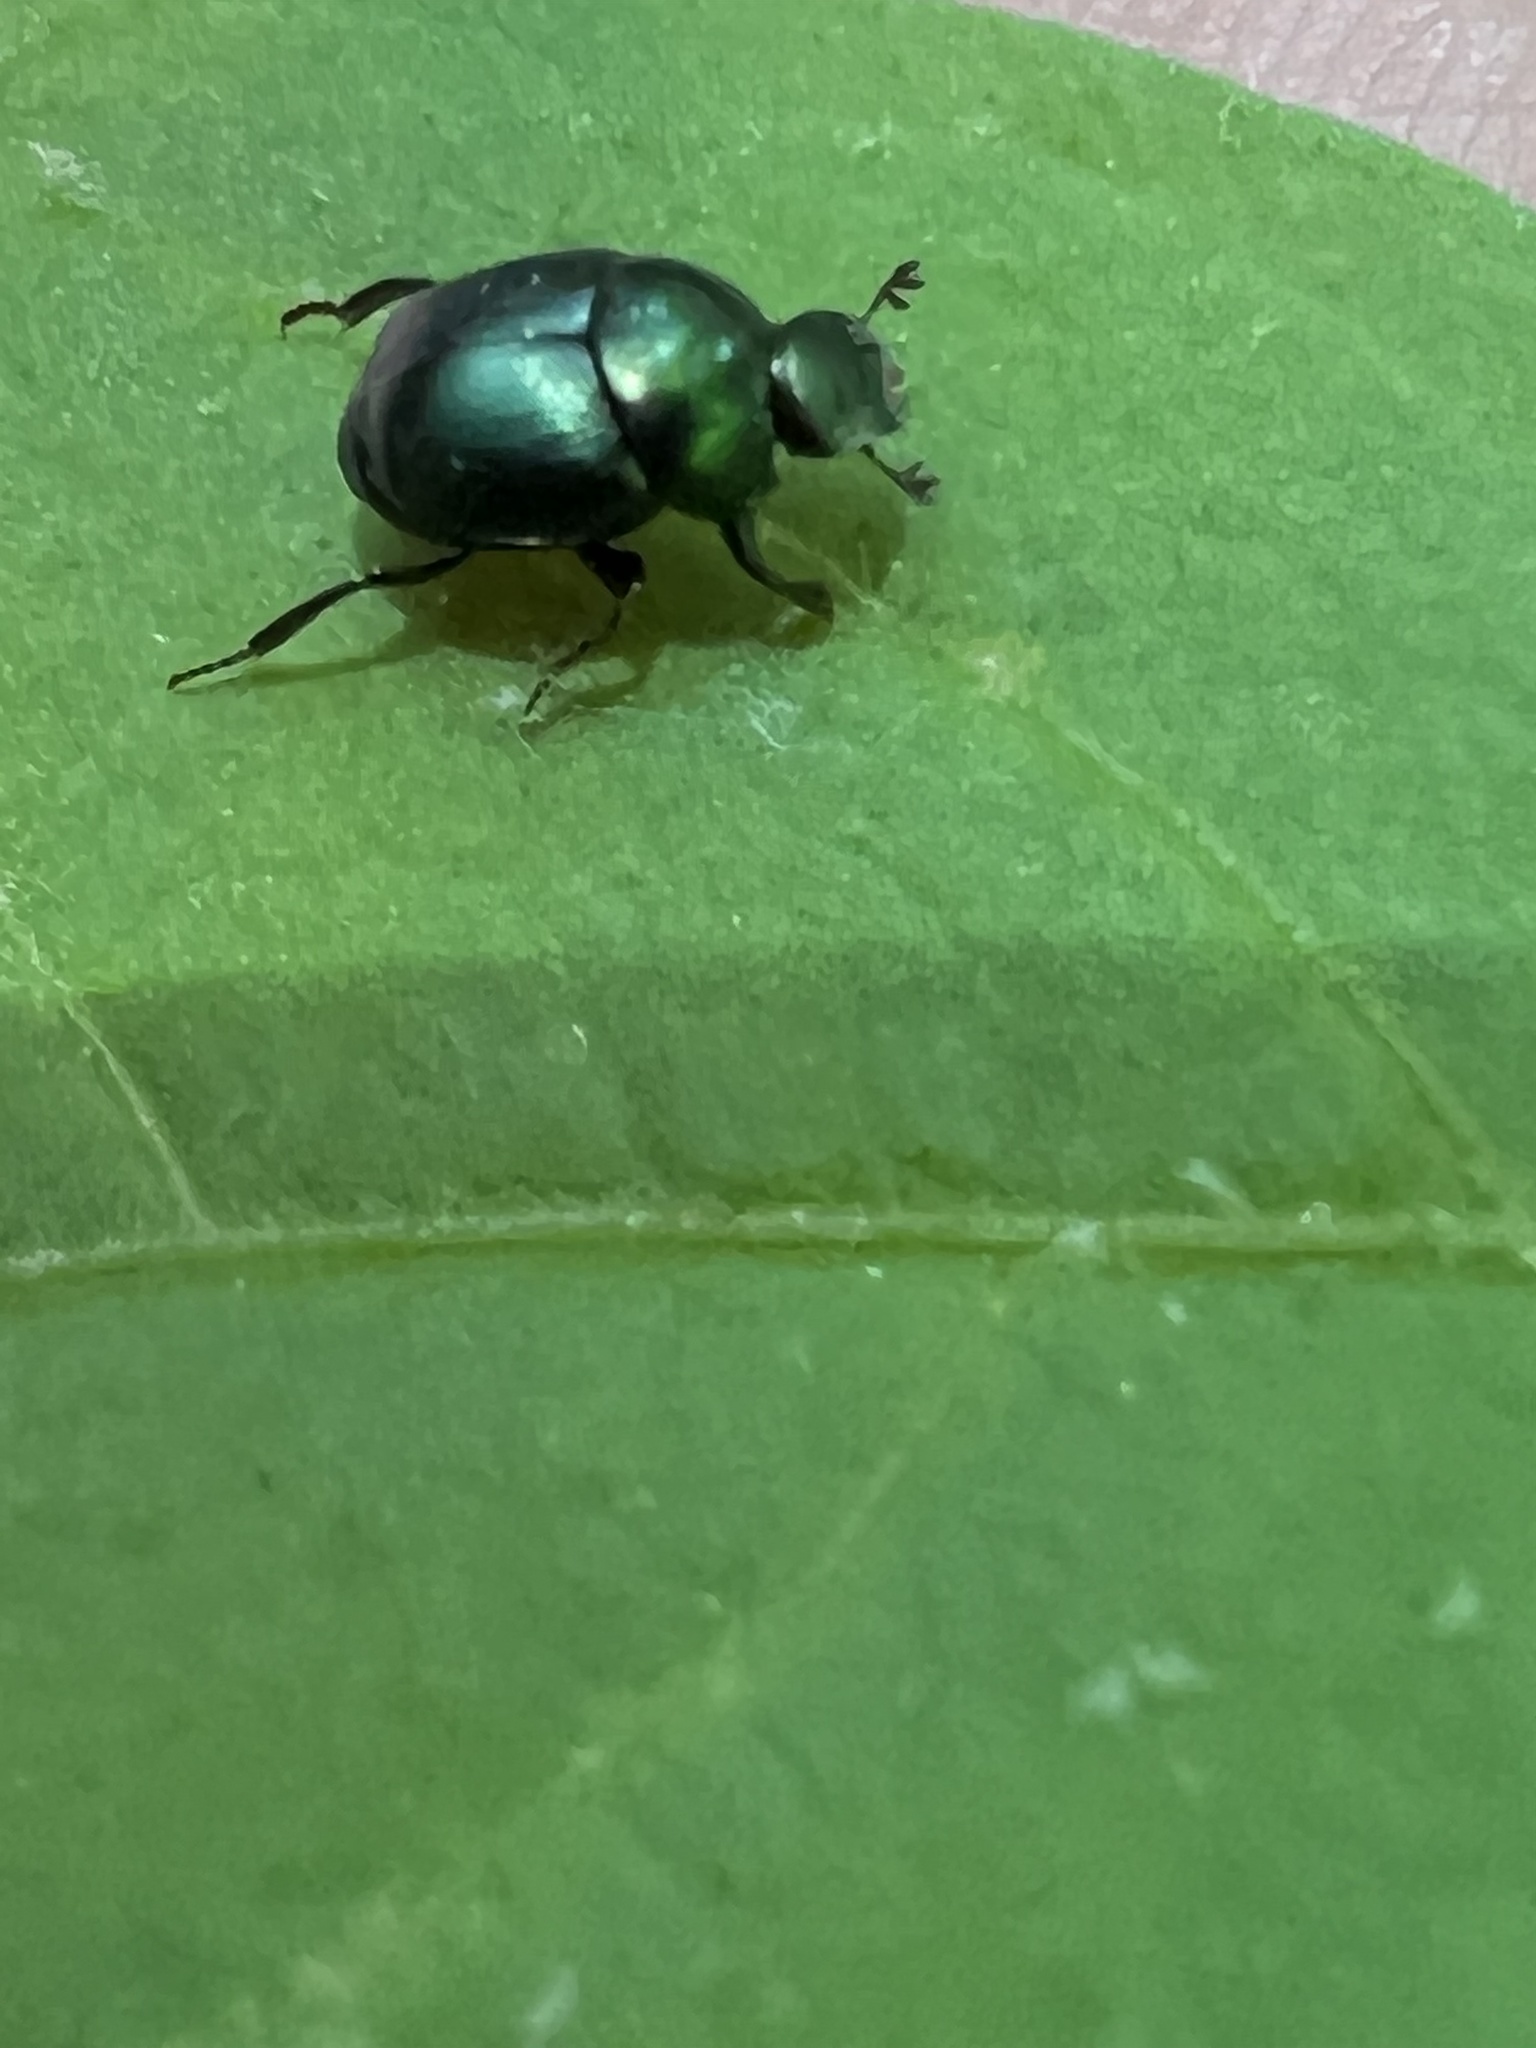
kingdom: Animalia
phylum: Arthropoda
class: Insecta
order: Coleoptera
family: Scarabaeidae
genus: Canthon
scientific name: Canthon viridis
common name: Tumblebug
